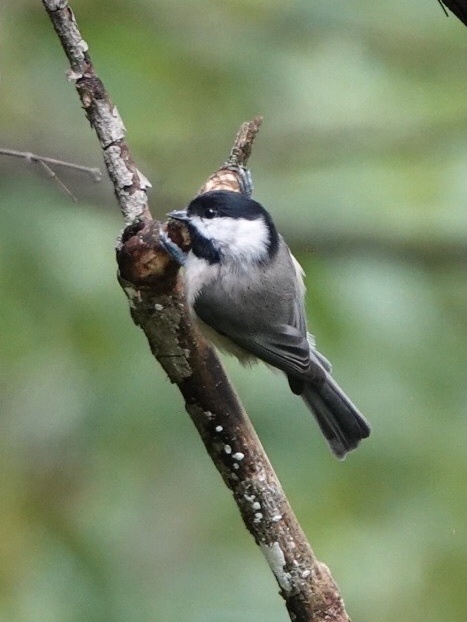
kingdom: Animalia
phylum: Chordata
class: Aves
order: Passeriformes
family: Paridae
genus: Poecile
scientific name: Poecile carolinensis
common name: Carolina chickadee
